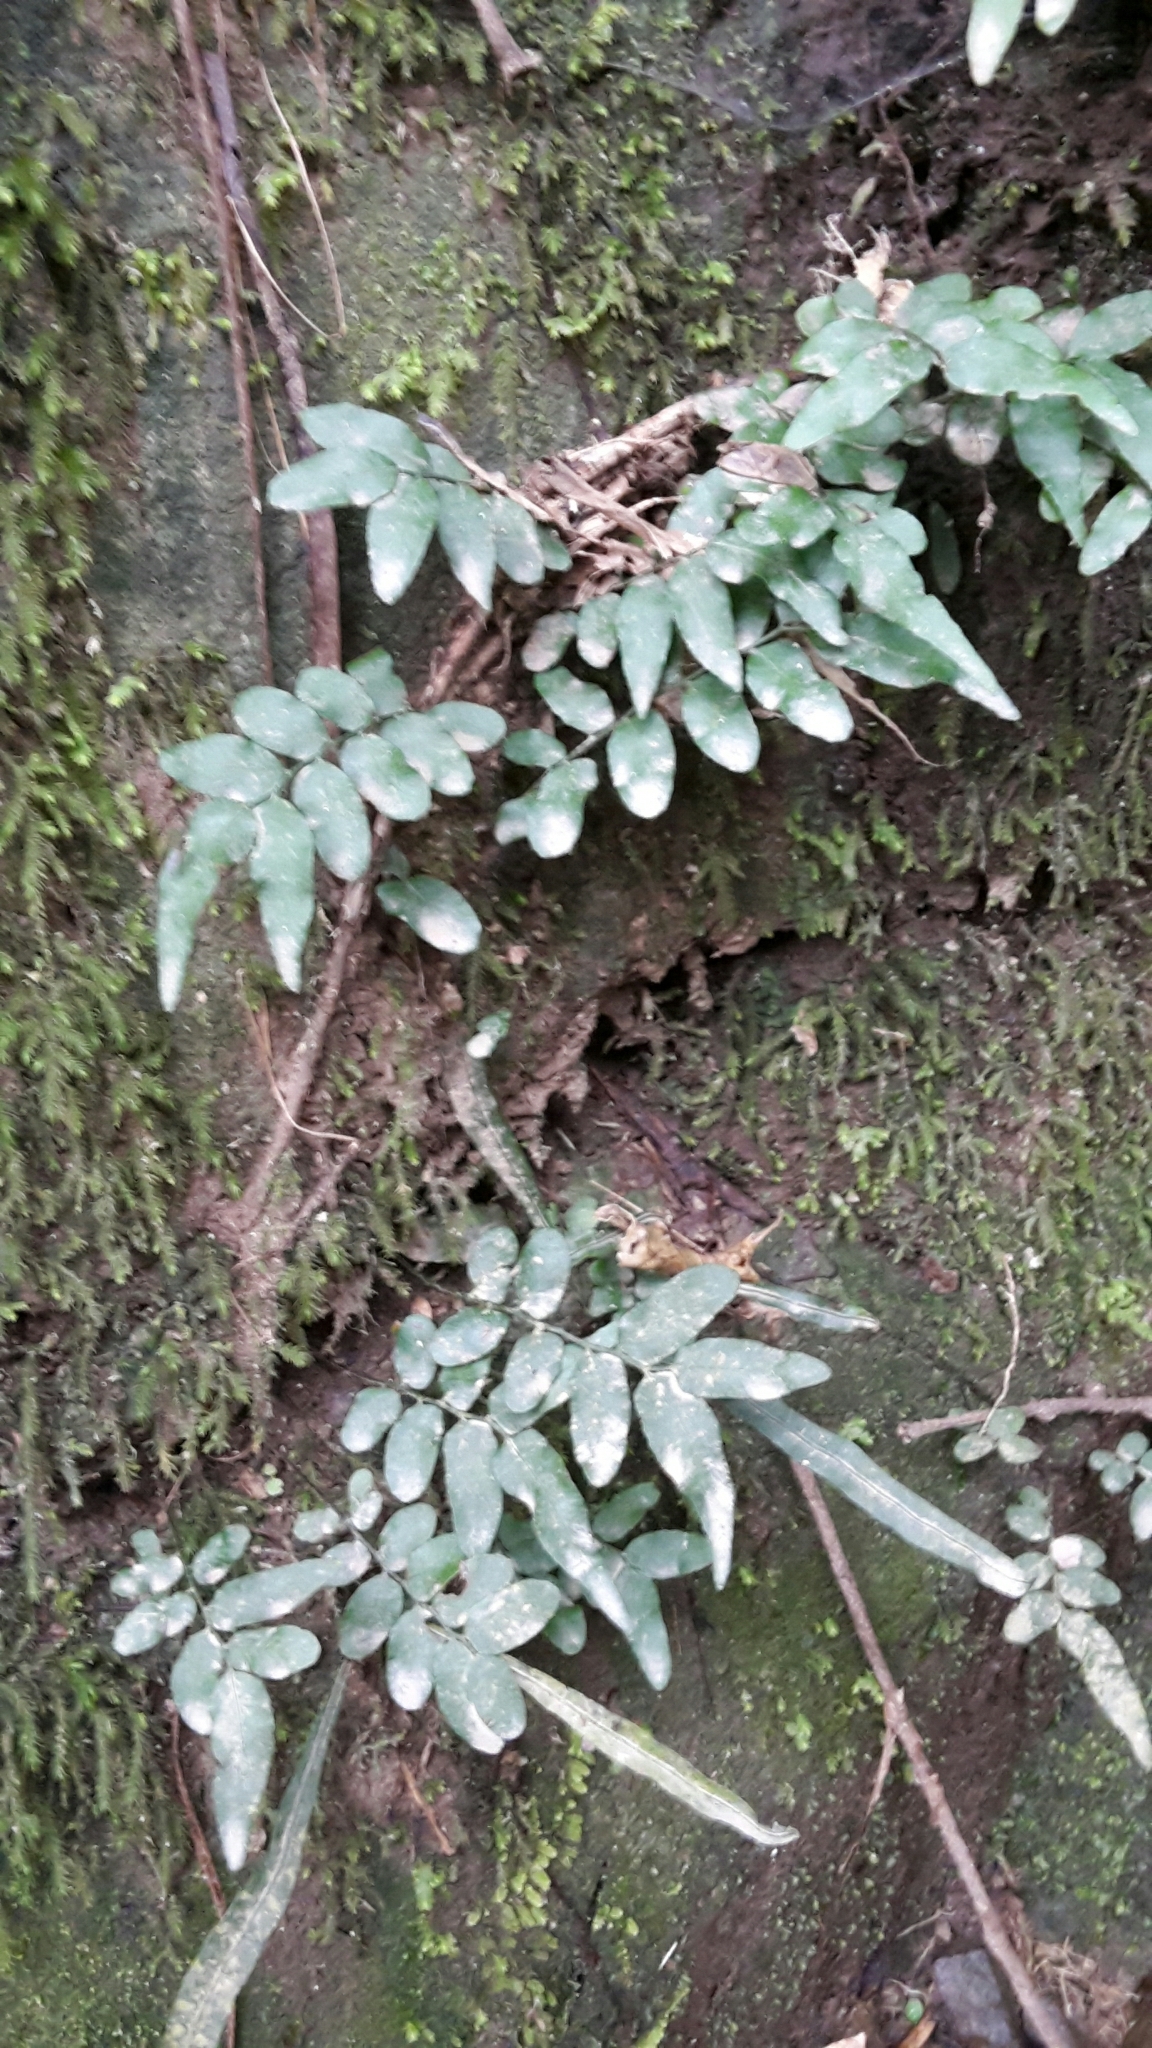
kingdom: Plantae
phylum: Tracheophyta
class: Polypodiopsida
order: Polypodiales
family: Tectariaceae
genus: Arthropteris
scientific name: Arthropteris tenella
